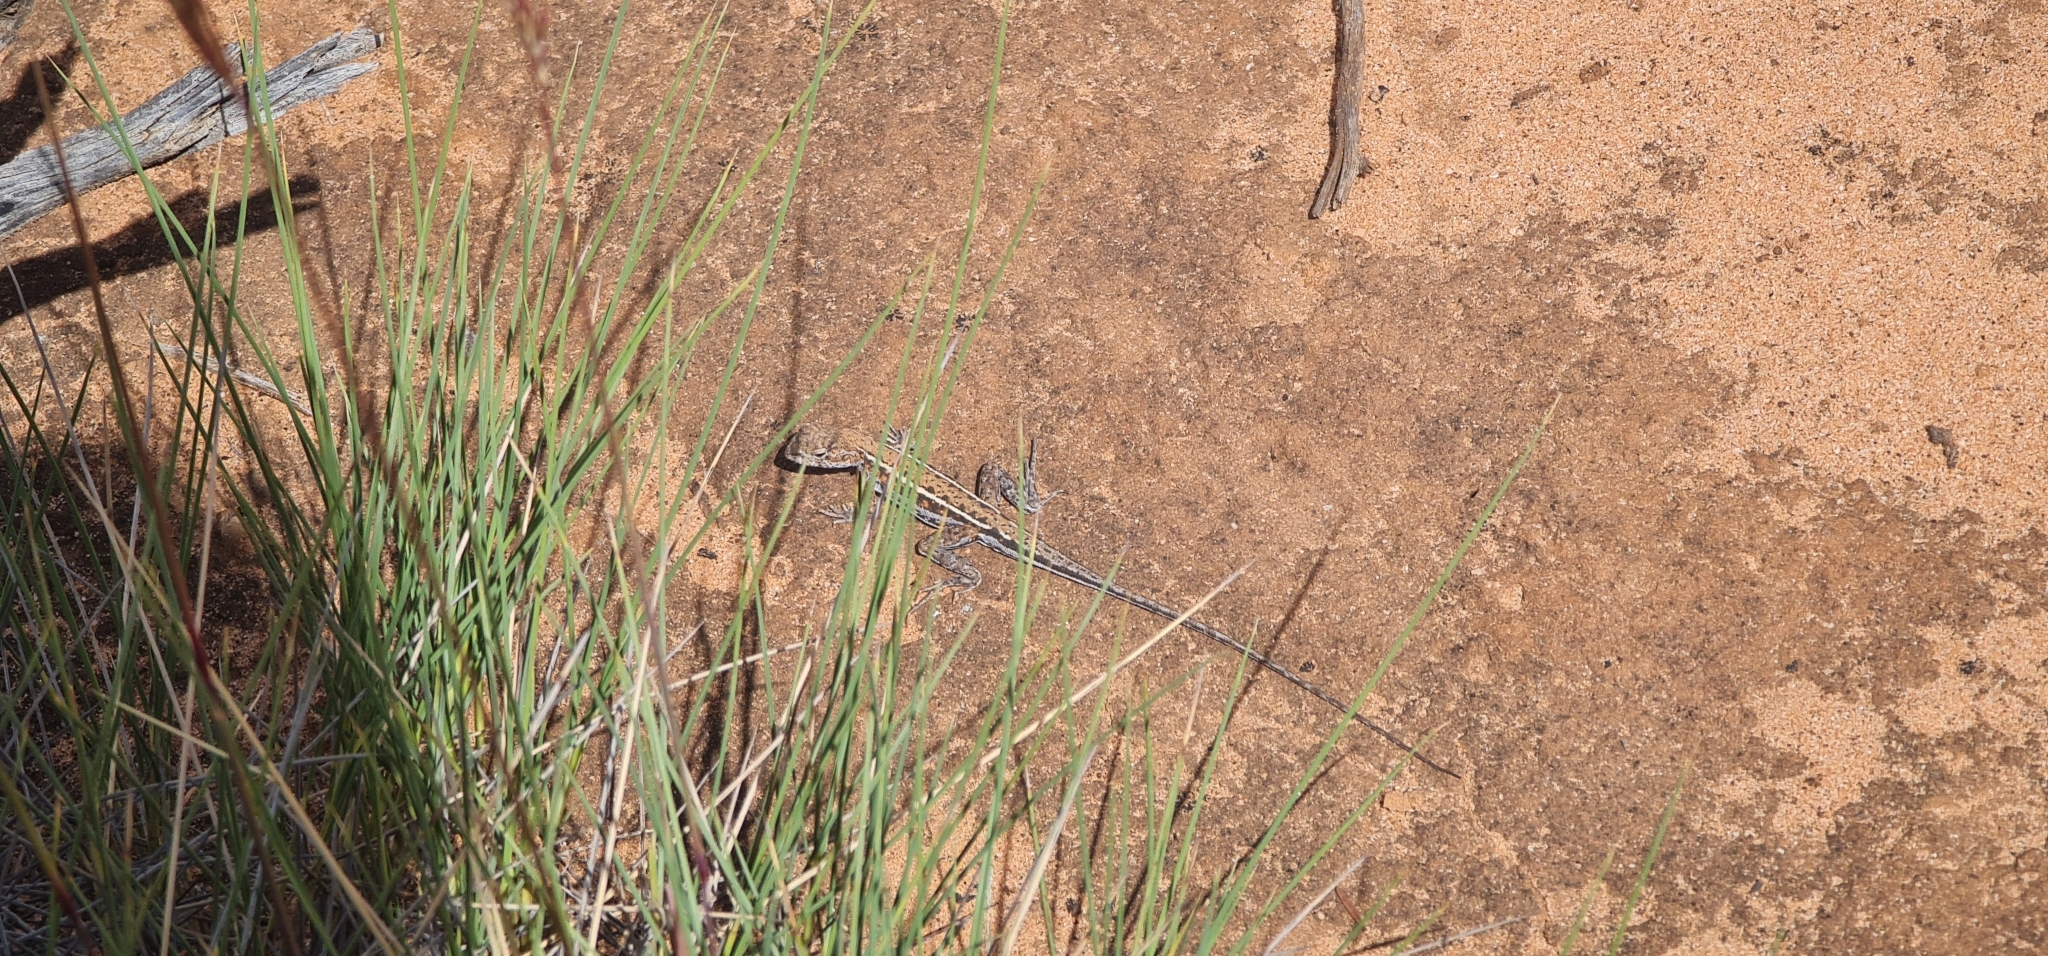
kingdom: Animalia
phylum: Chordata
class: Squamata
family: Agamidae
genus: Ctenophorus
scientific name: Ctenophorus spinodomus
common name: Eastern mallee dragon
